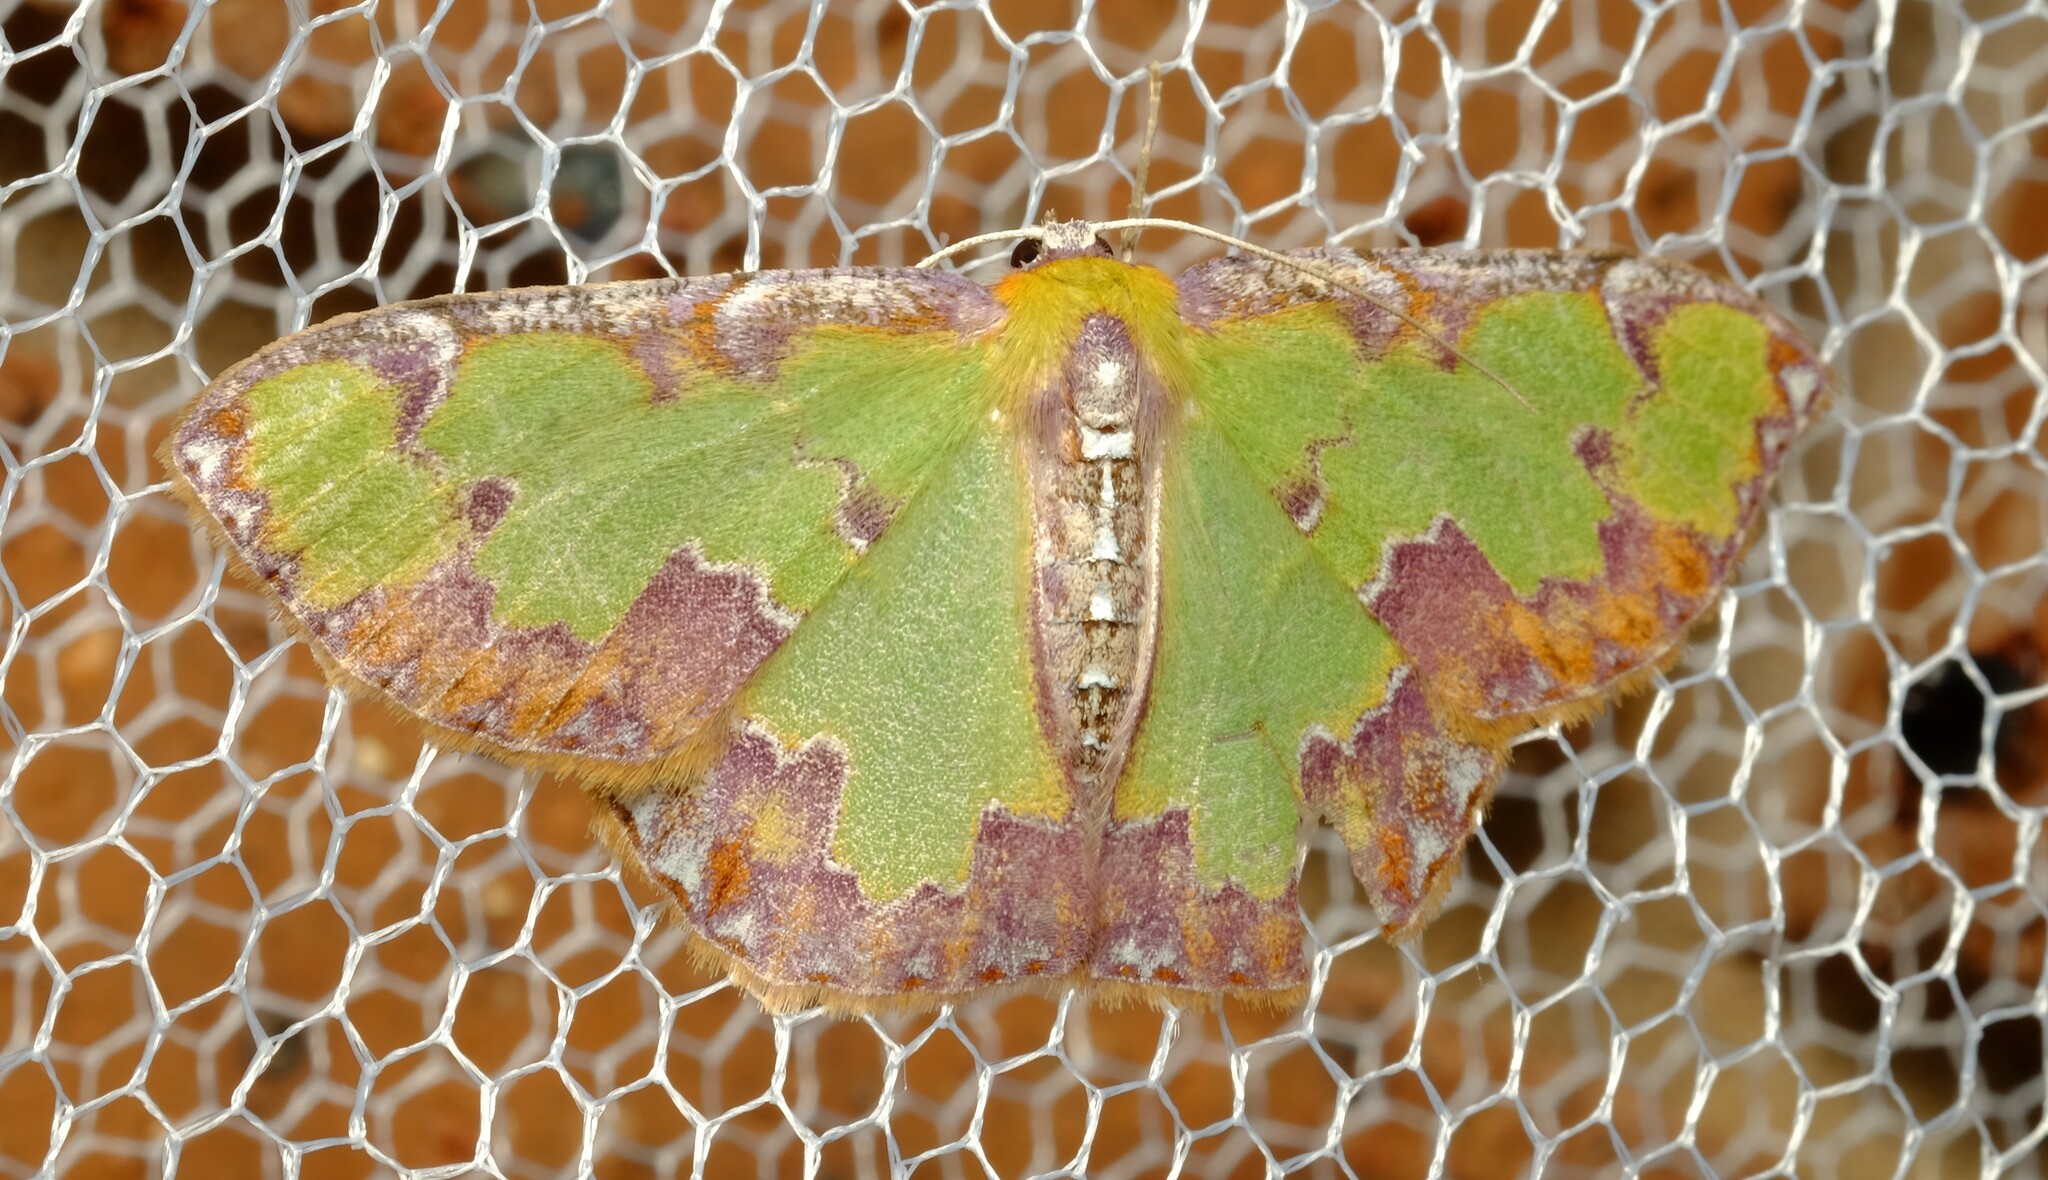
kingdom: Animalia
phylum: Arthropoda
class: Insecta
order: Lepidoptera
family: Geometridae
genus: Eucyclodes
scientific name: Eucyclodes buprestaria
